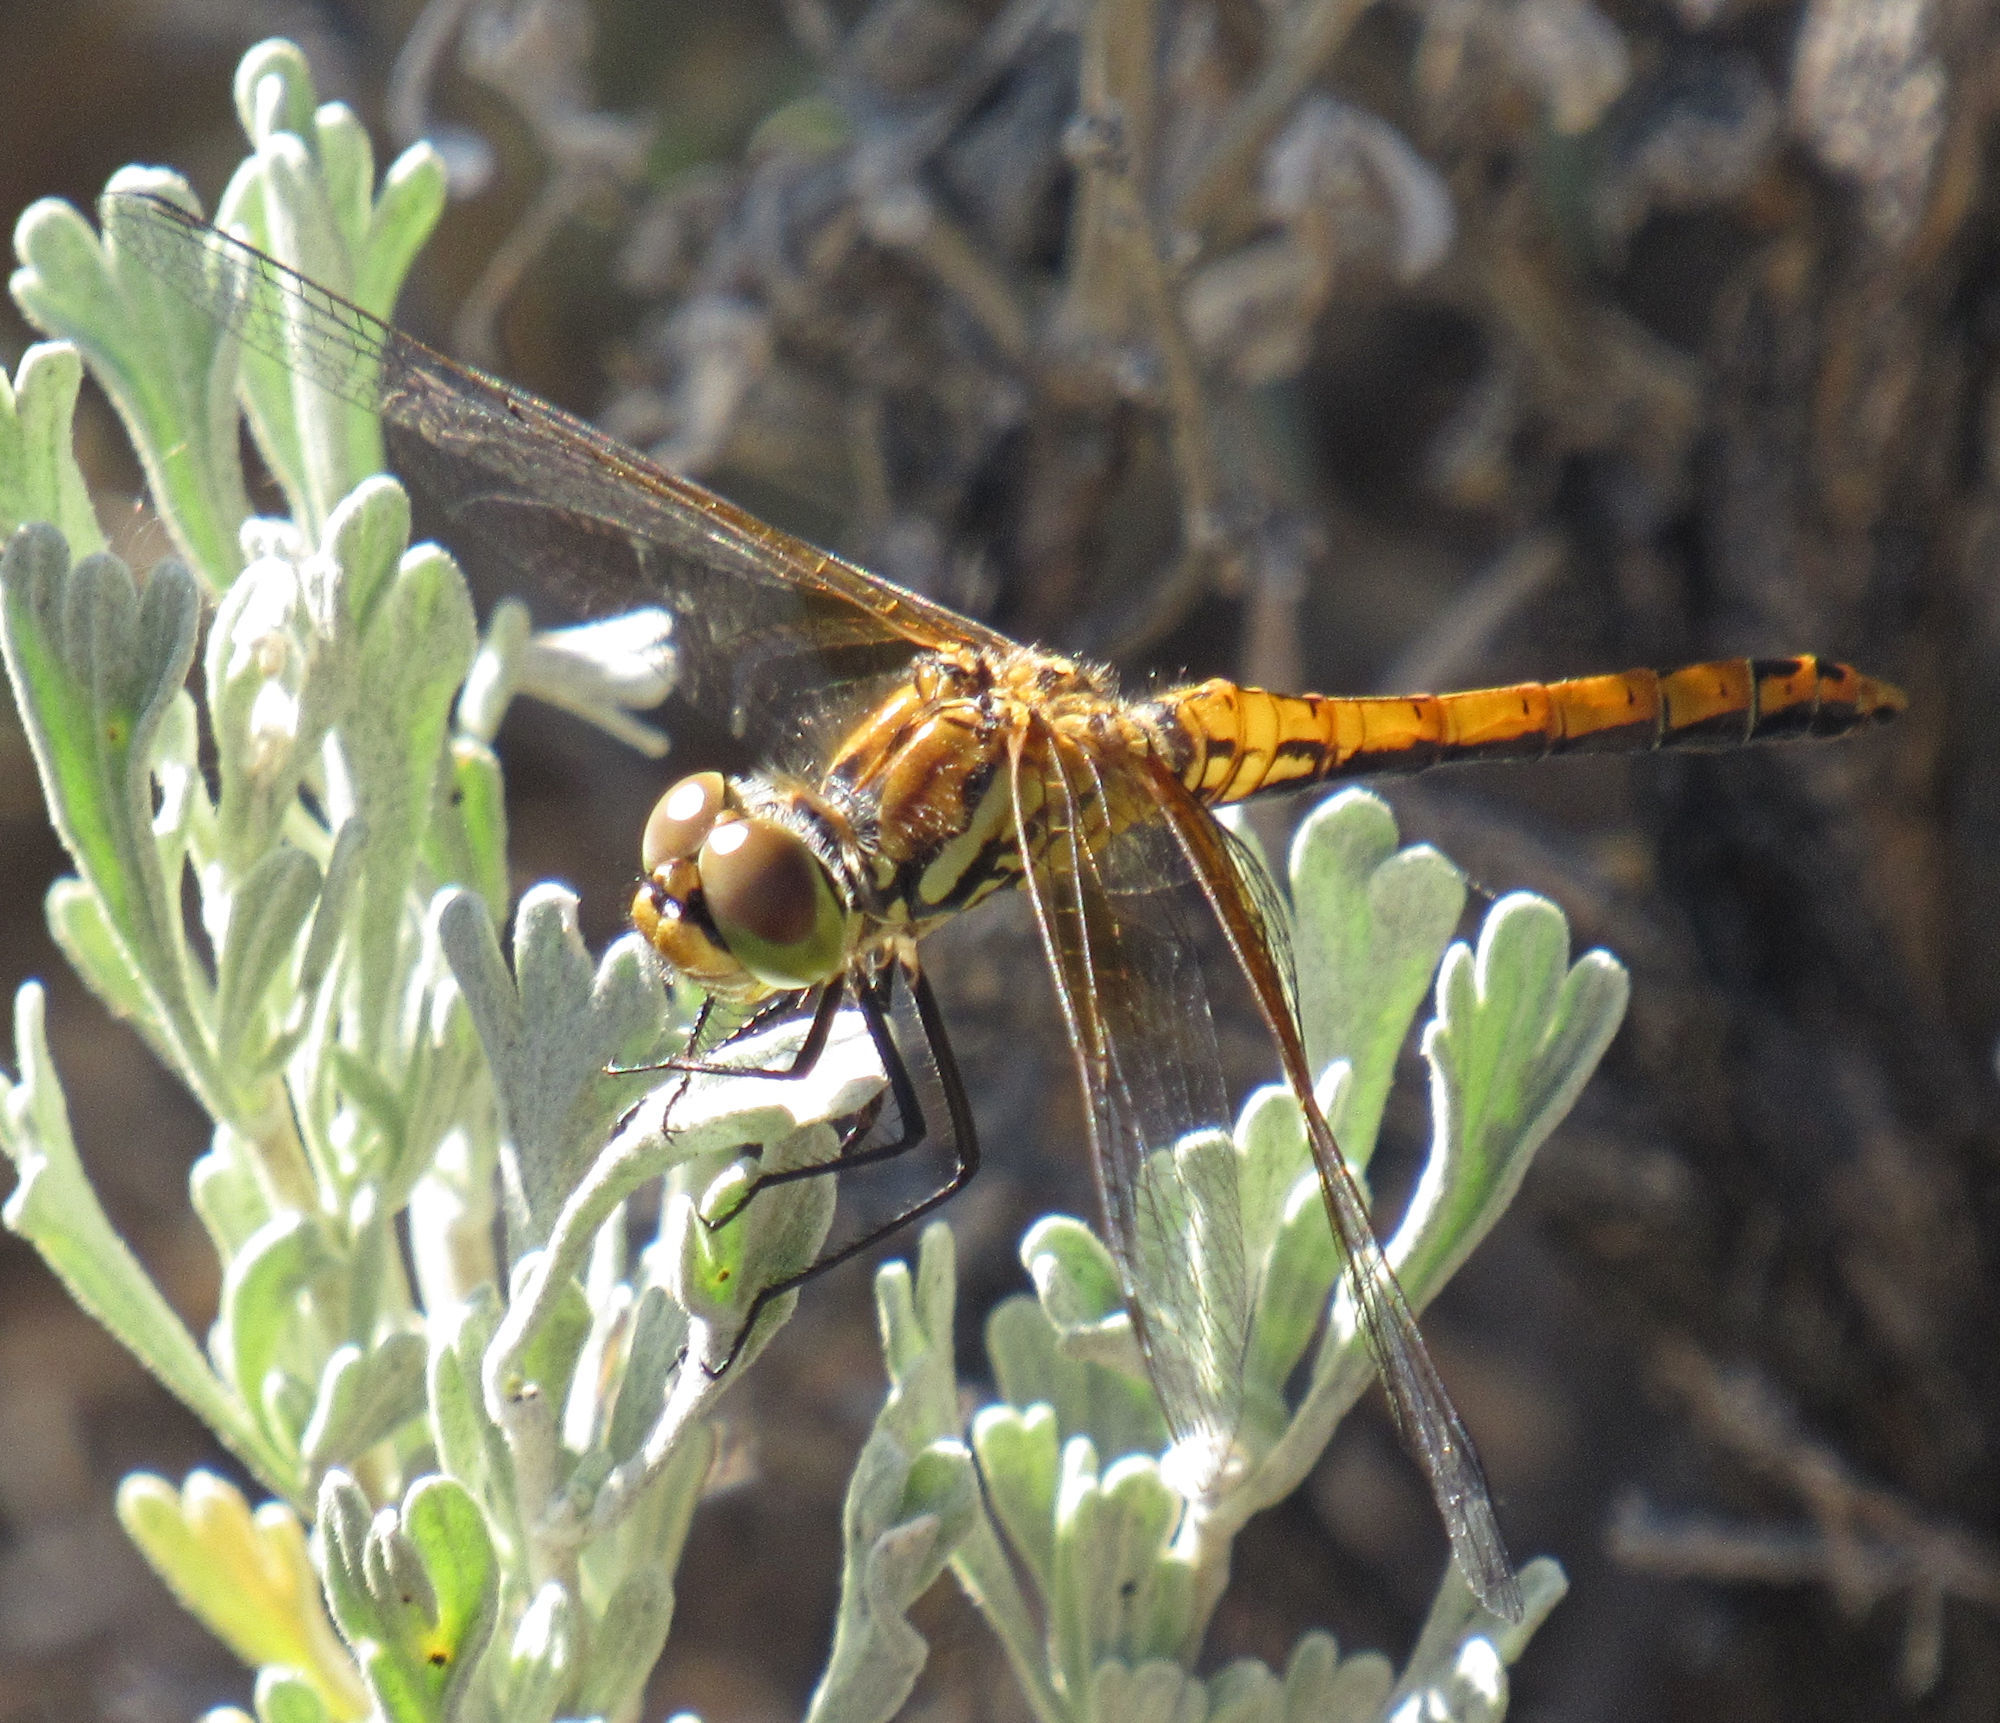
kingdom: Animalia
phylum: Arthropoda
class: Insecta
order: Odonata
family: Libellulidae
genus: Sympetrum
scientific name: Sympetrum semicinctum
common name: Band-winged meadowhawk
